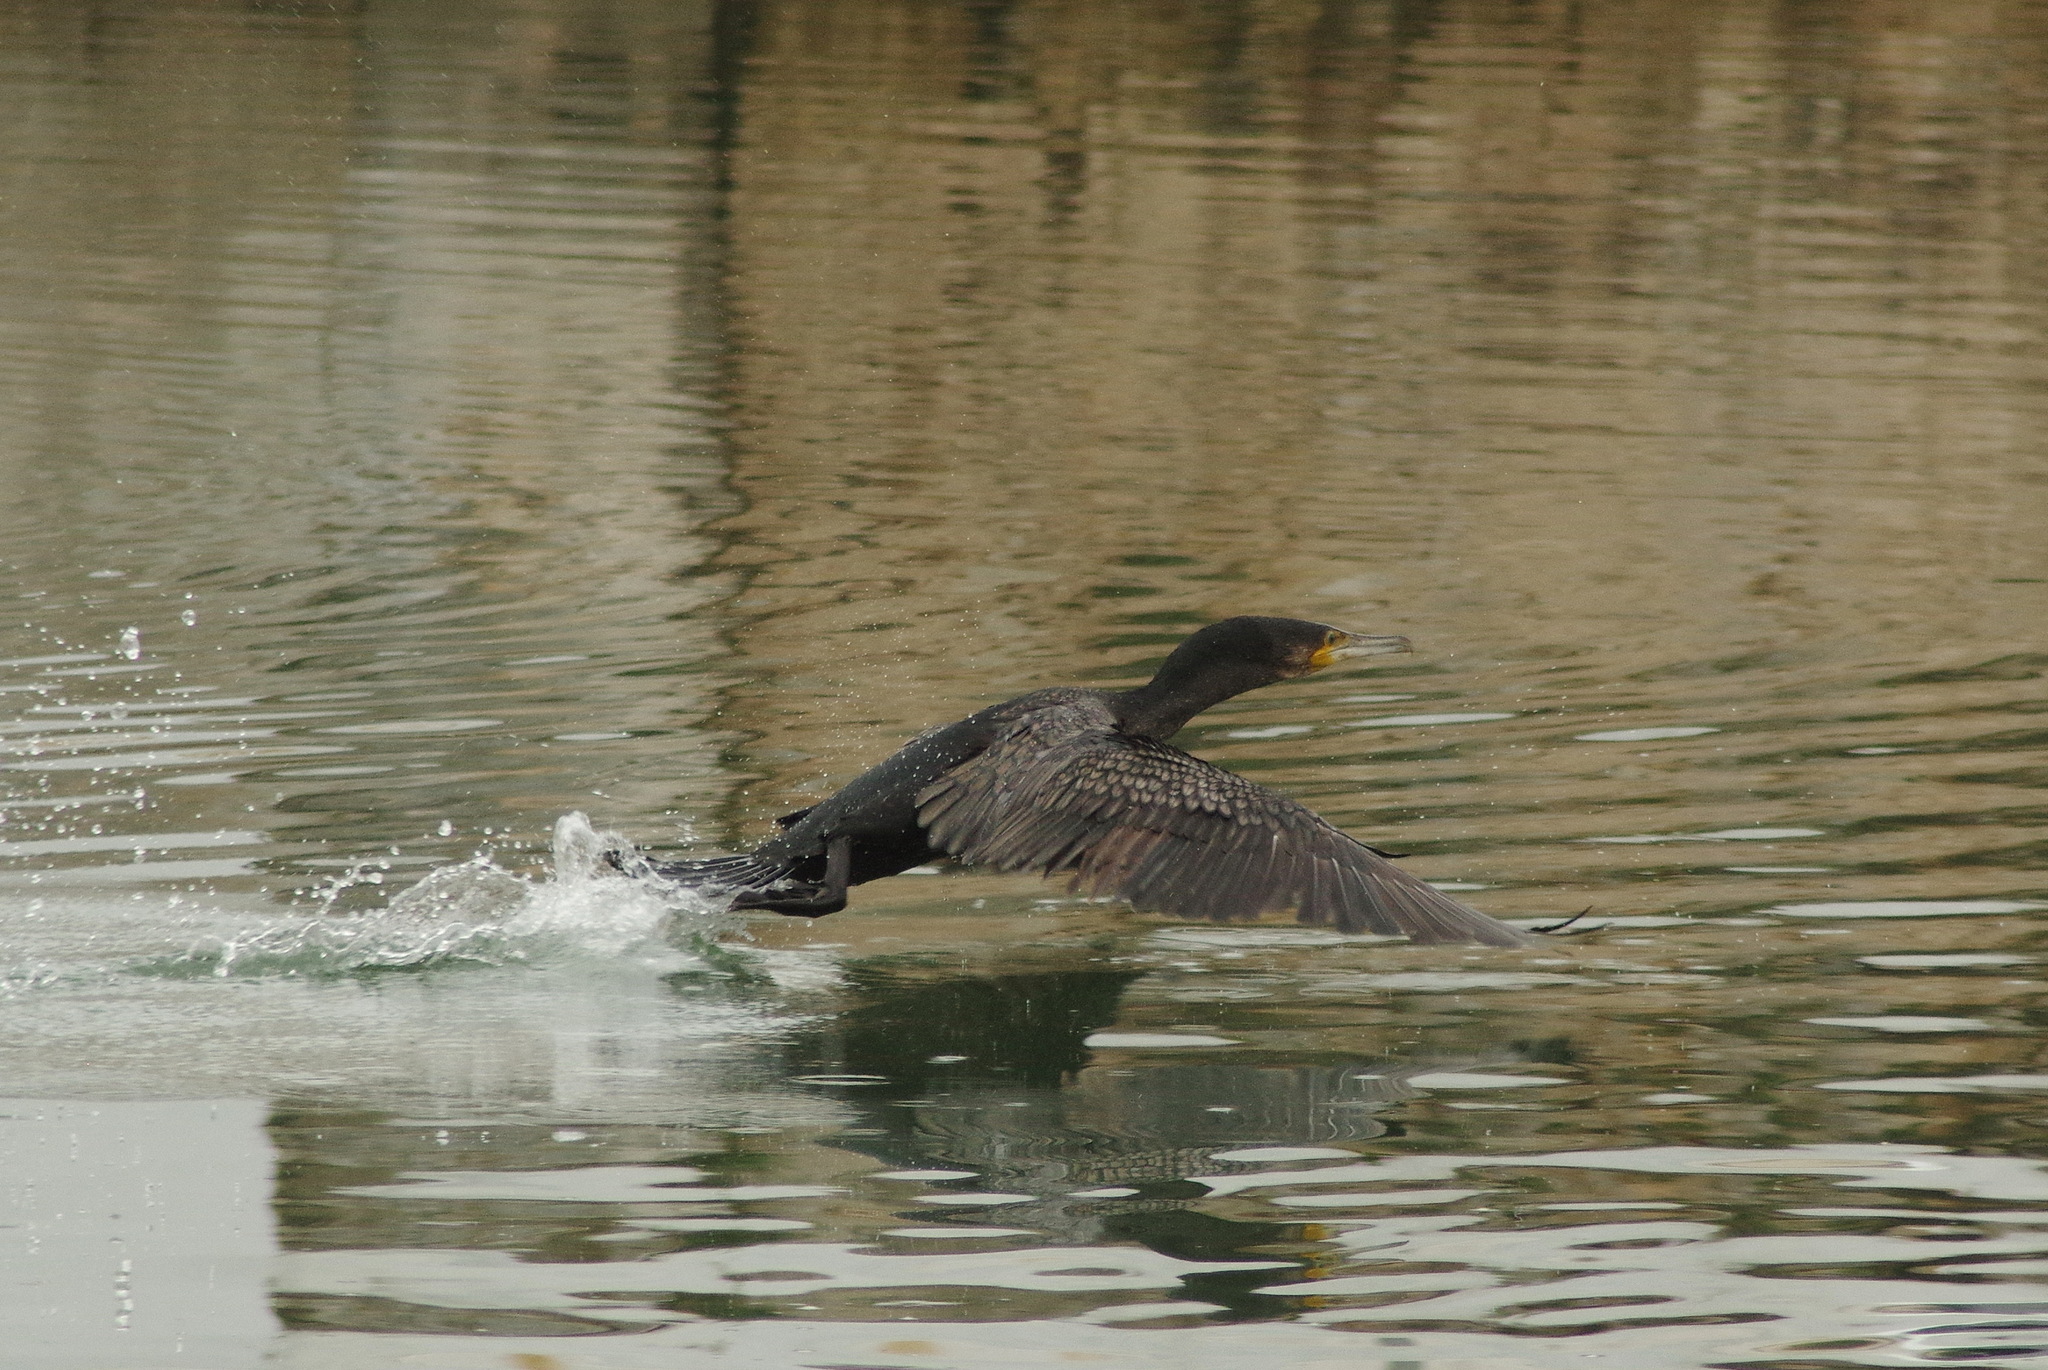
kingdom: Animalia
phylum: Chordata
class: Aves
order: Suliformes
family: Phalacrocoracidae
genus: Phalacrocorax
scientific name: Phalacrocorax carbo
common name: Great cormorant
